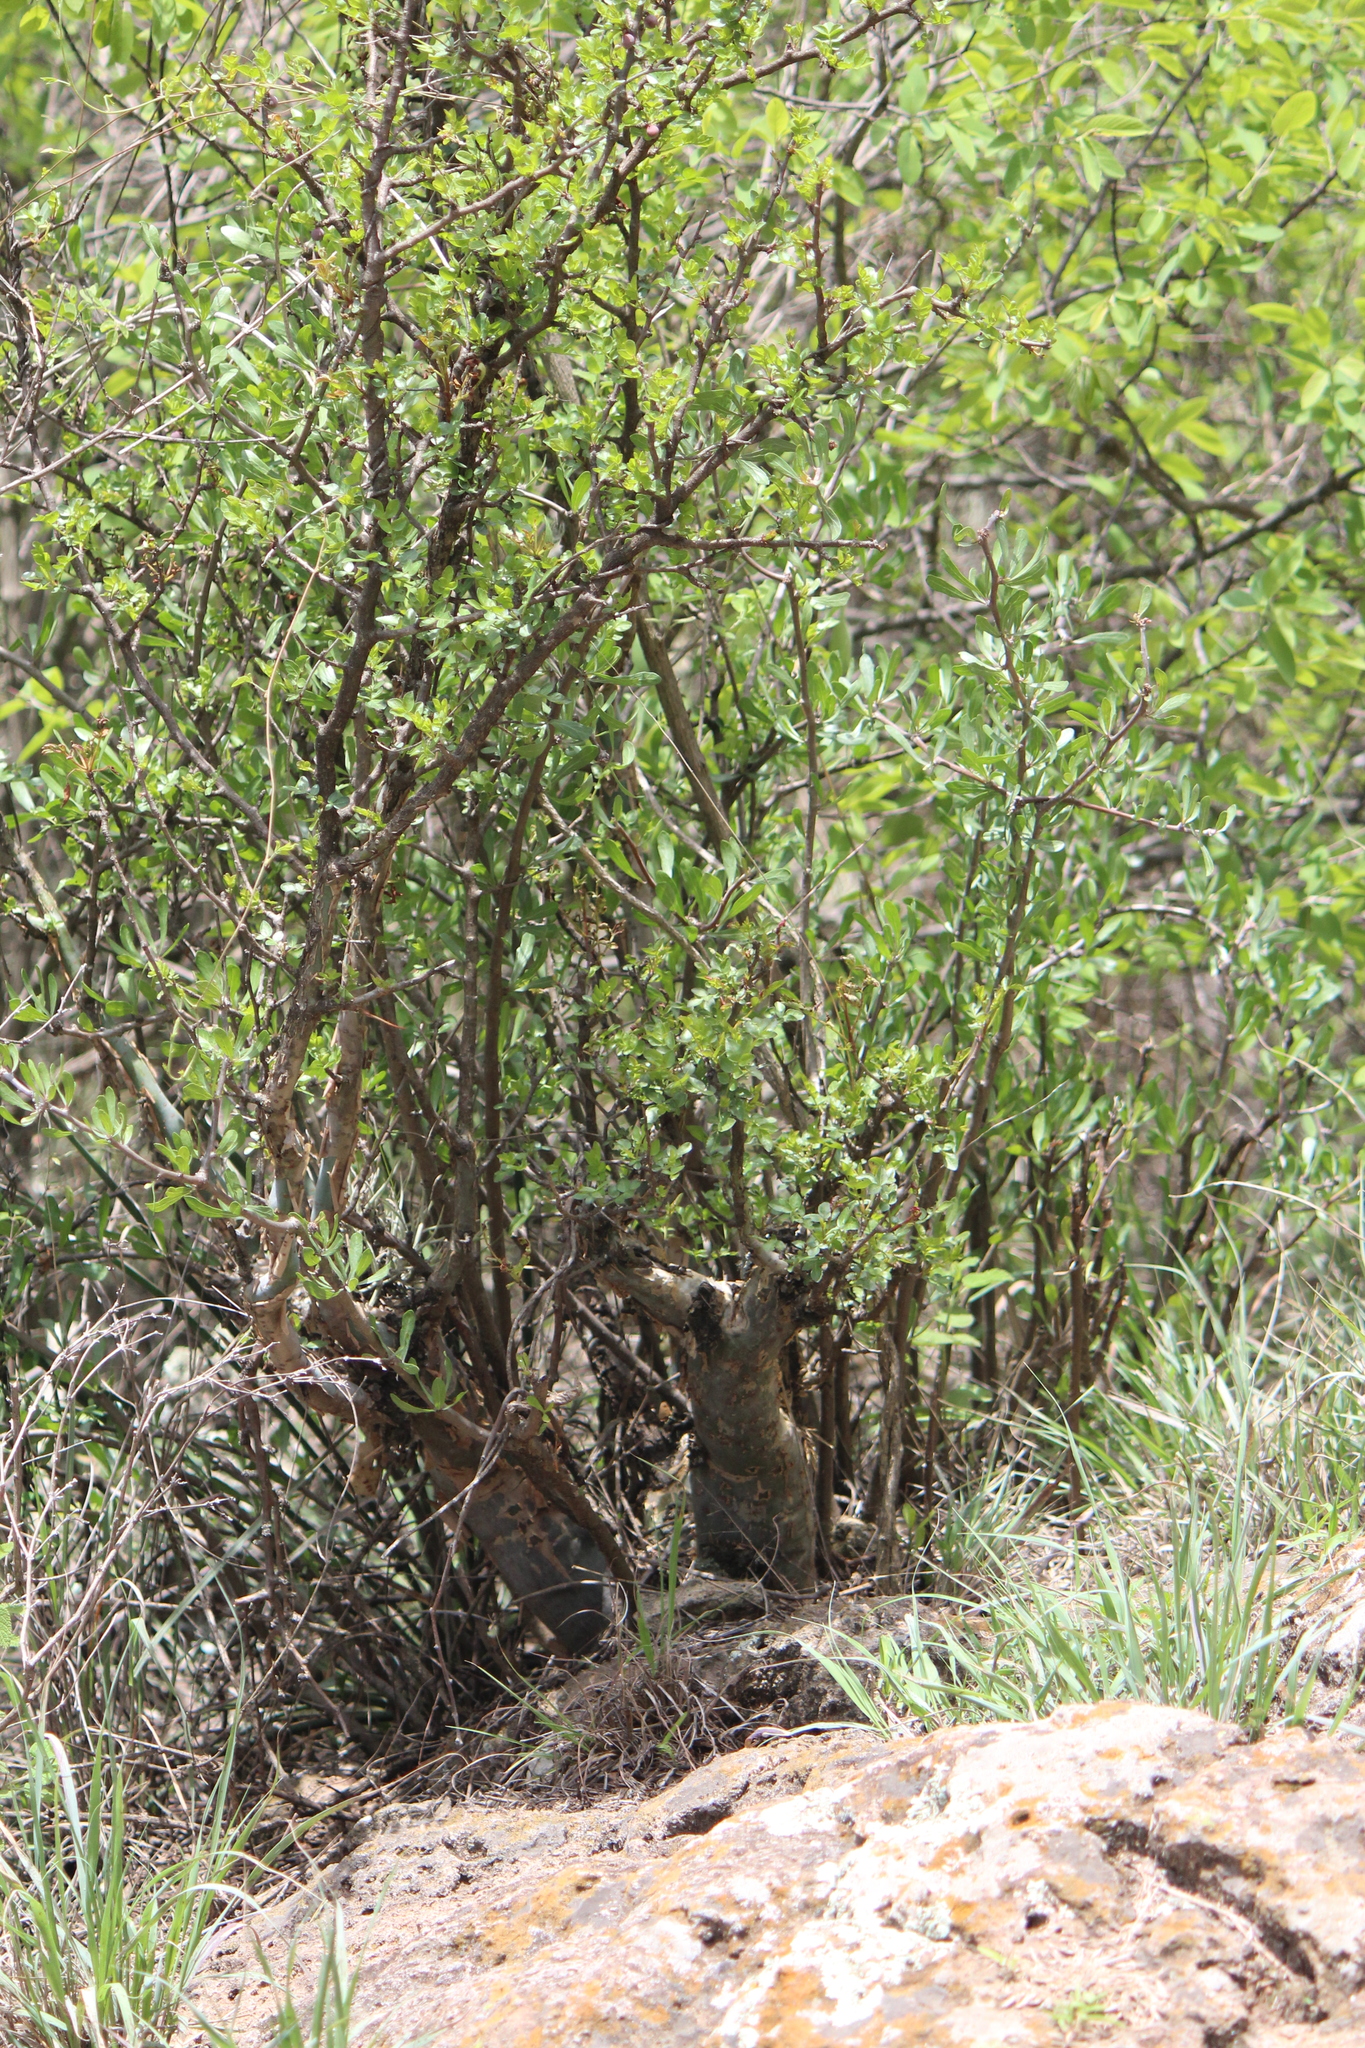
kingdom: Plantae
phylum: Tracheophyta
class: Magnoliopsida
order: Sapindales
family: Burseraceae
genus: Bursera
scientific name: Bursera fagaroides
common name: Elephant tree
